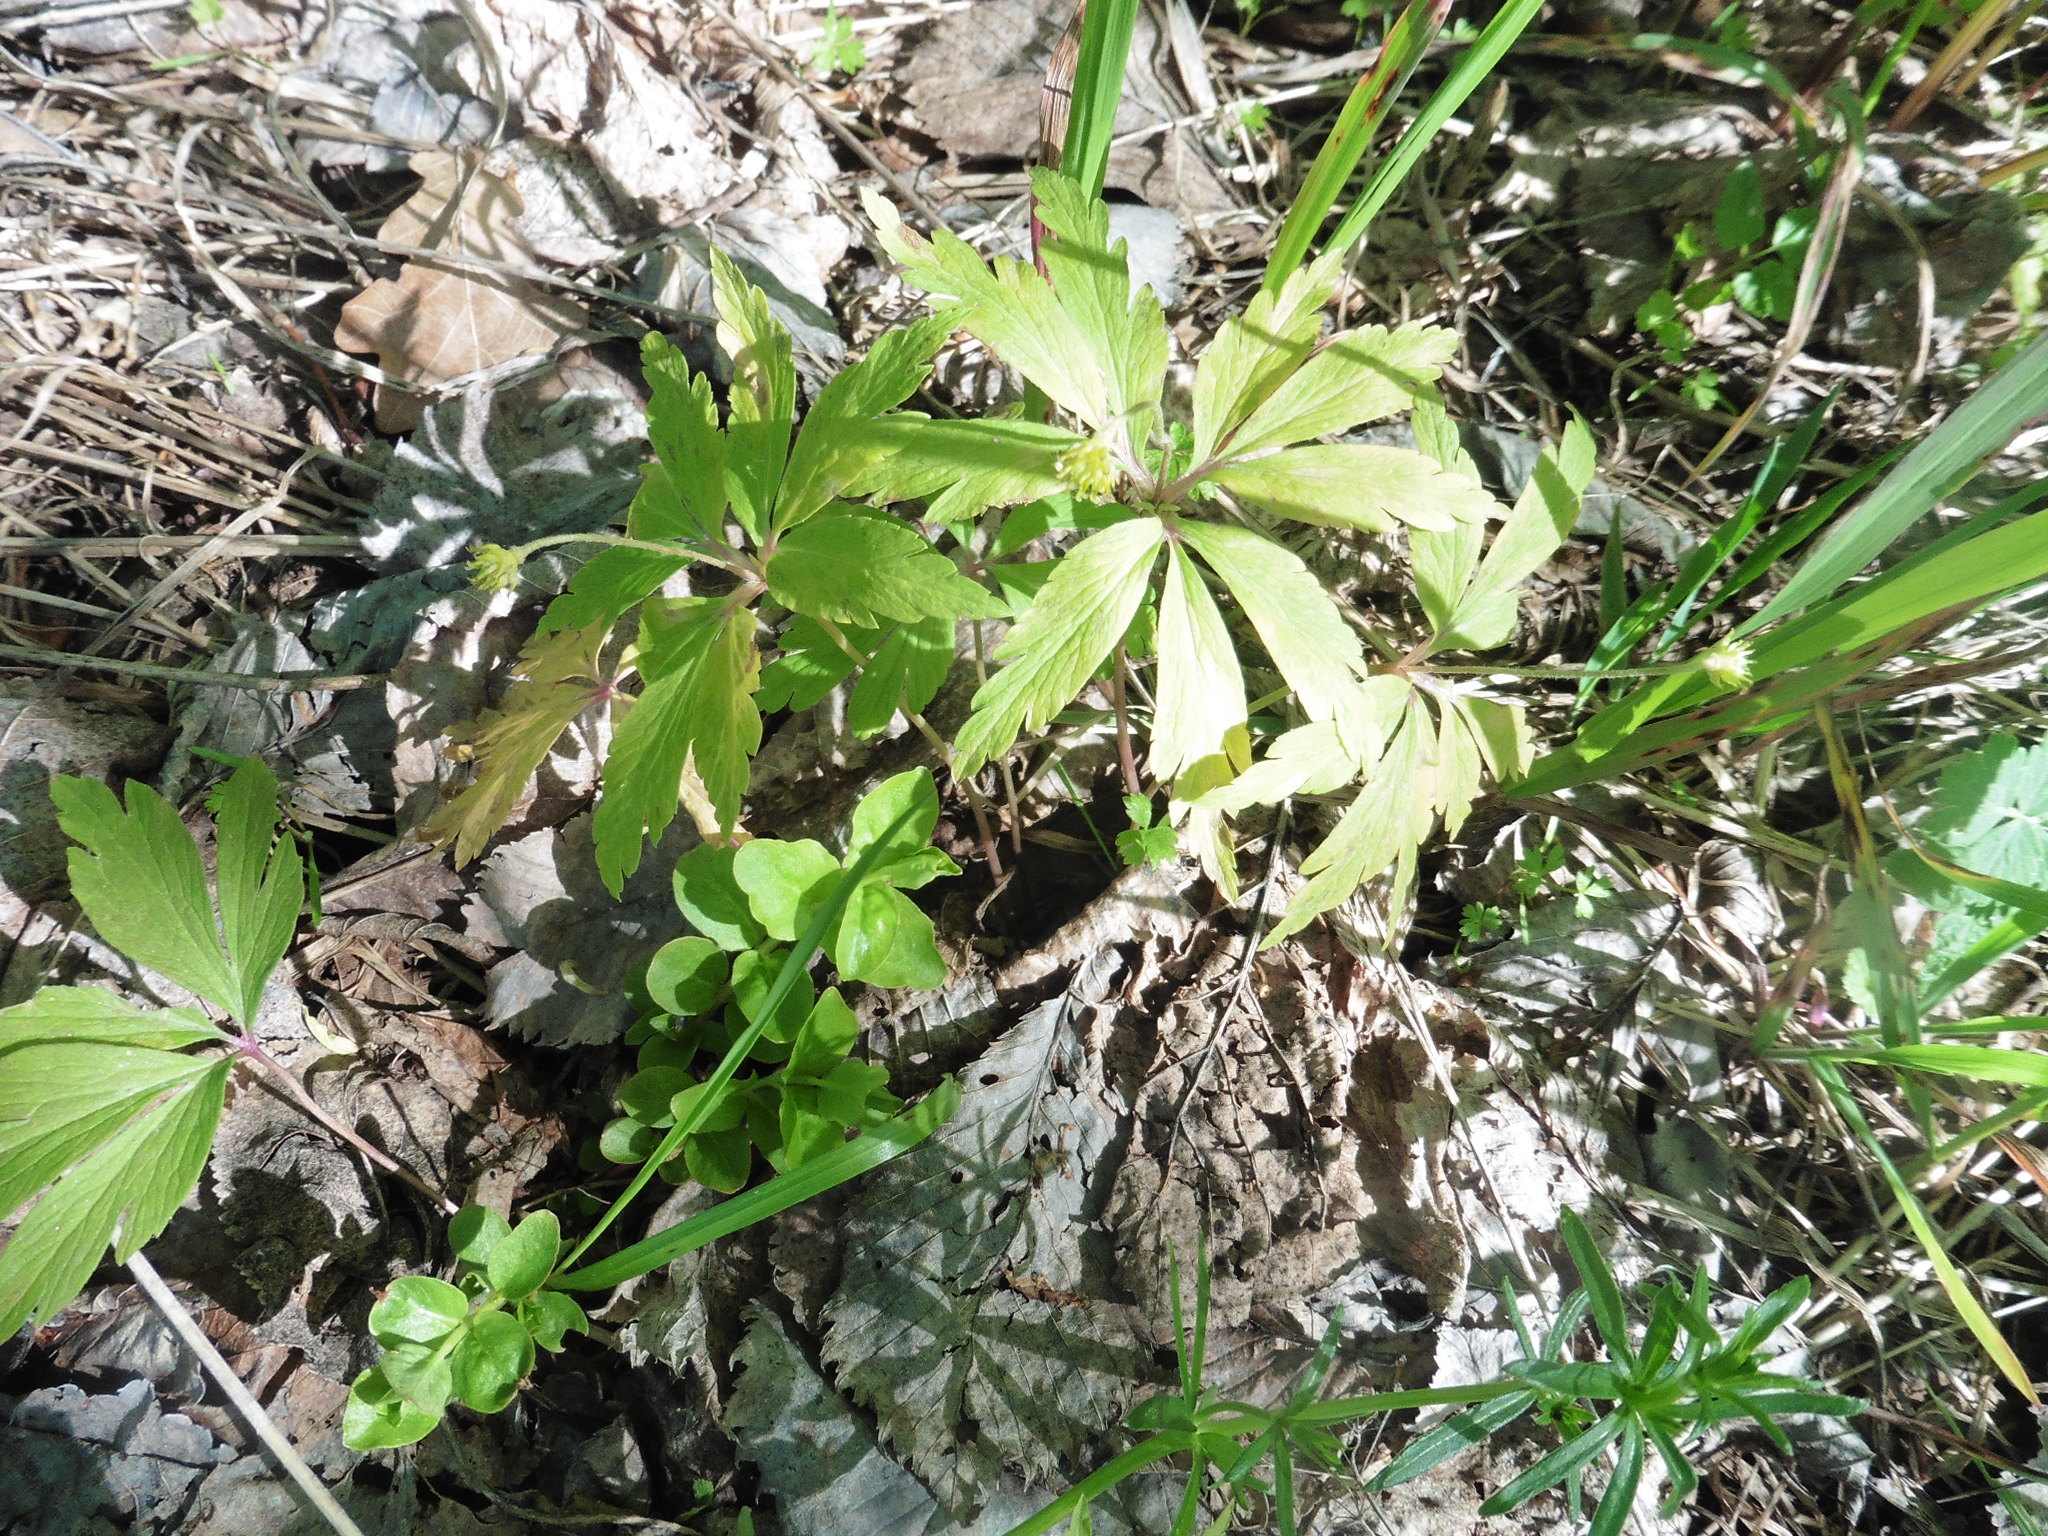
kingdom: Plantae
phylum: Tracheophyta
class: Magnoliopsida
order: Ranunculales
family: Ranunculaceae
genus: Anemone
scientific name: Anemone ranunculoides
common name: Yellow anemone
